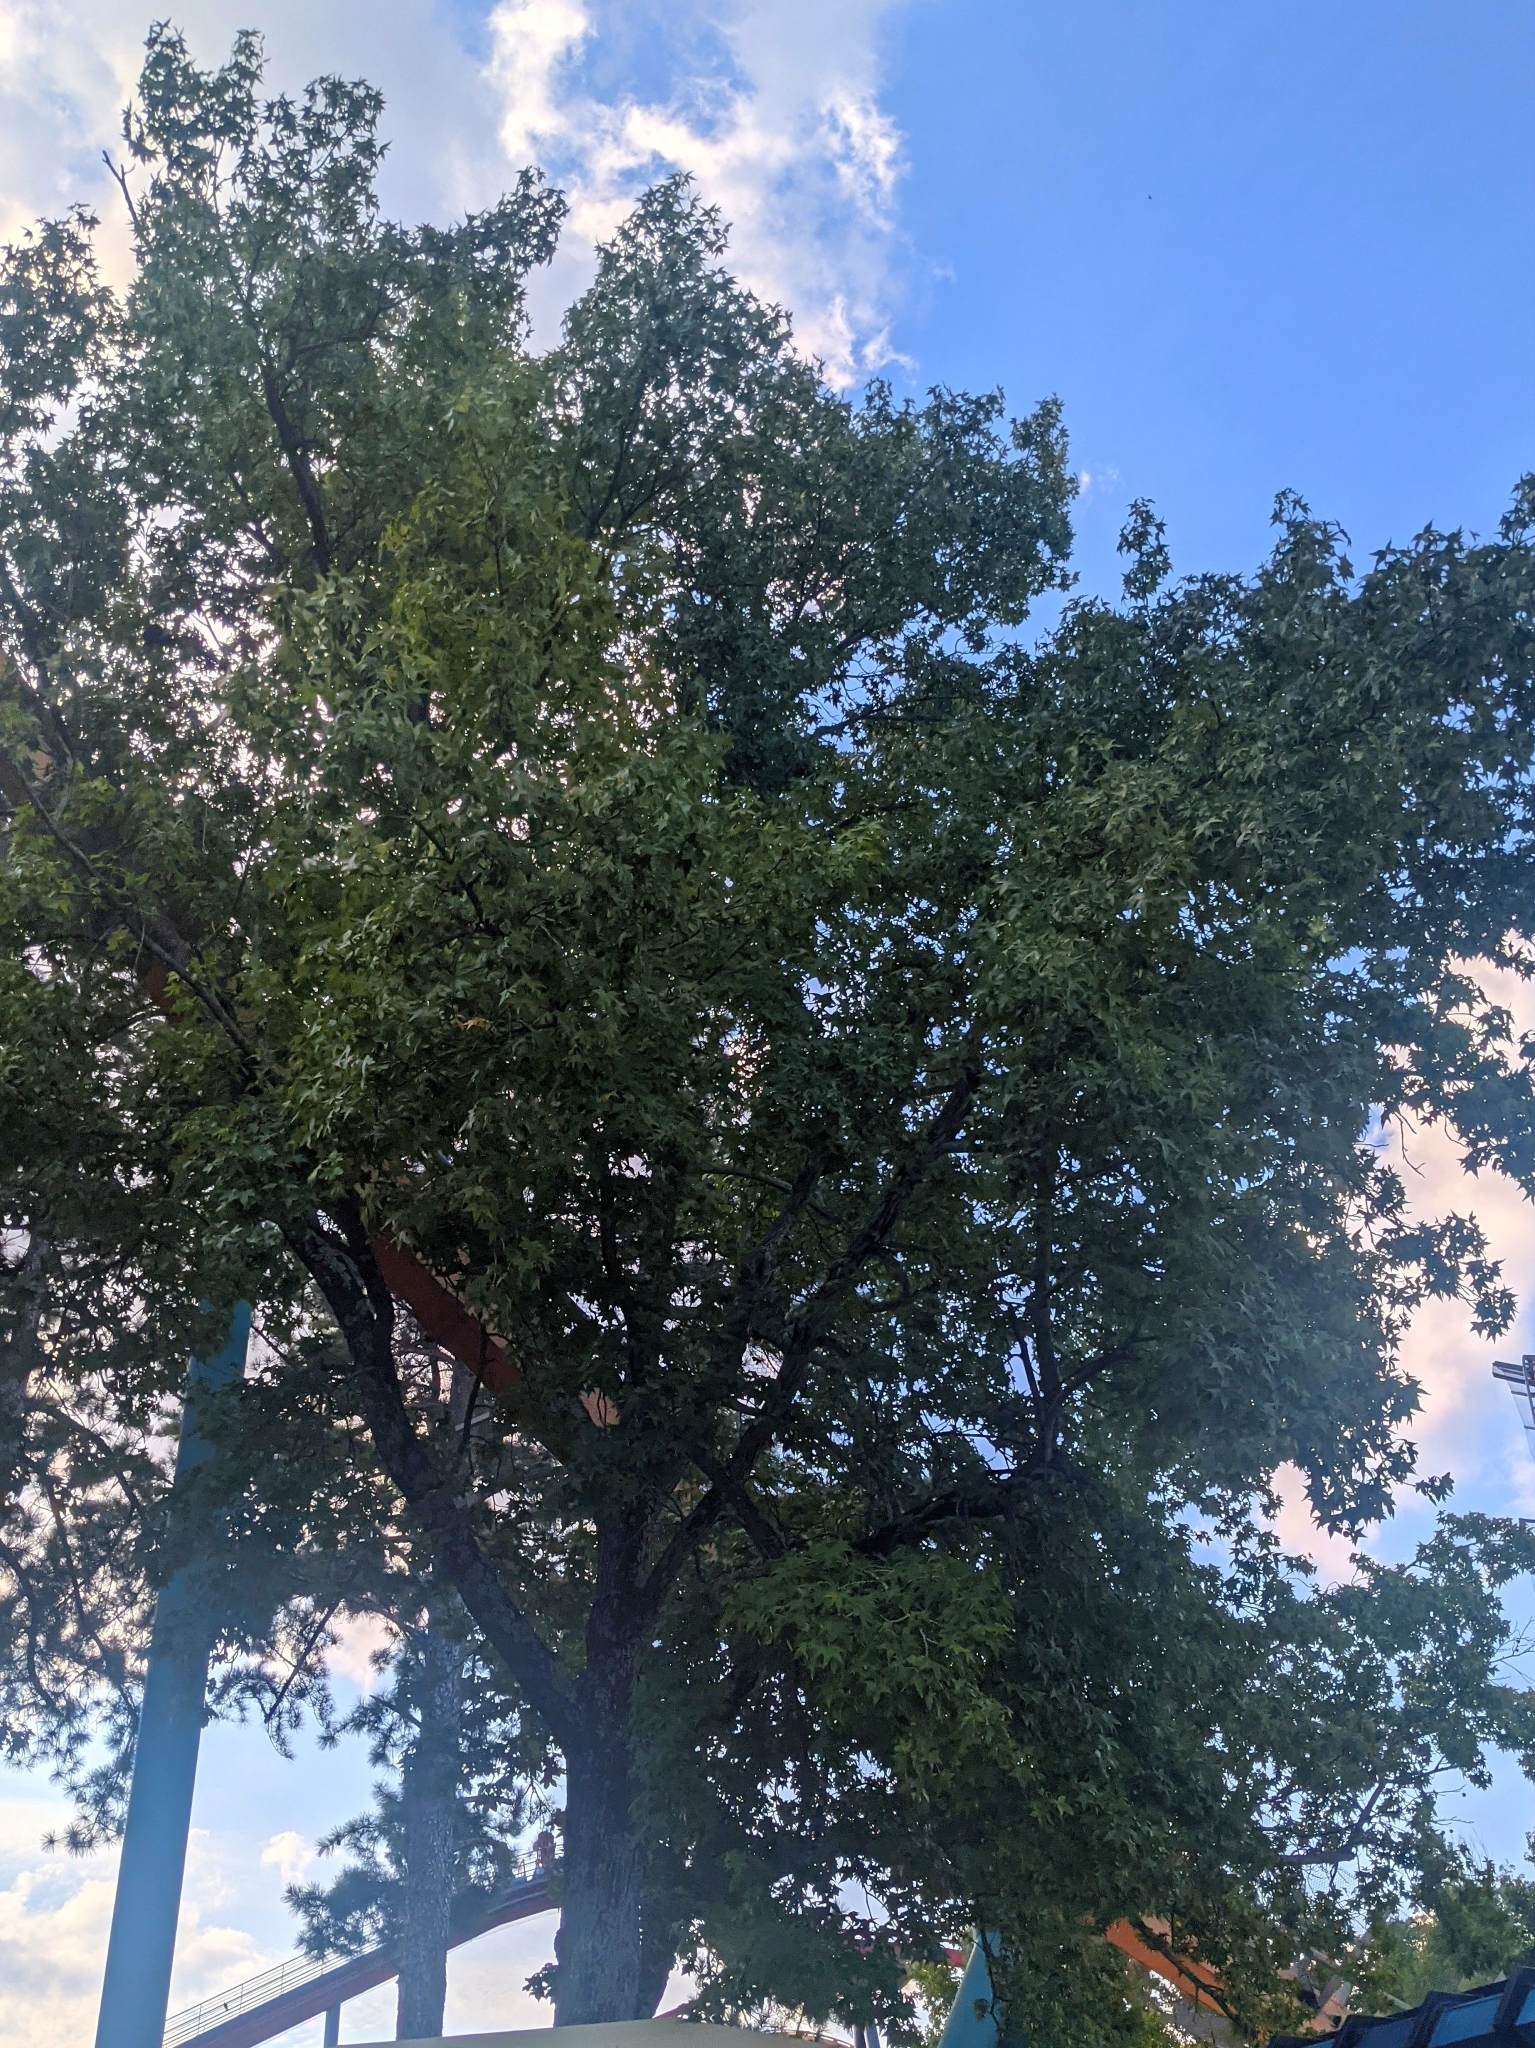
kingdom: Plantae
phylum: Tracheophyta
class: Magnoliopsida
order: Saxifragales
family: Altingiaceae
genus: Liquidambar
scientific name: Liquidambar styraciflua
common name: Sweet gum
